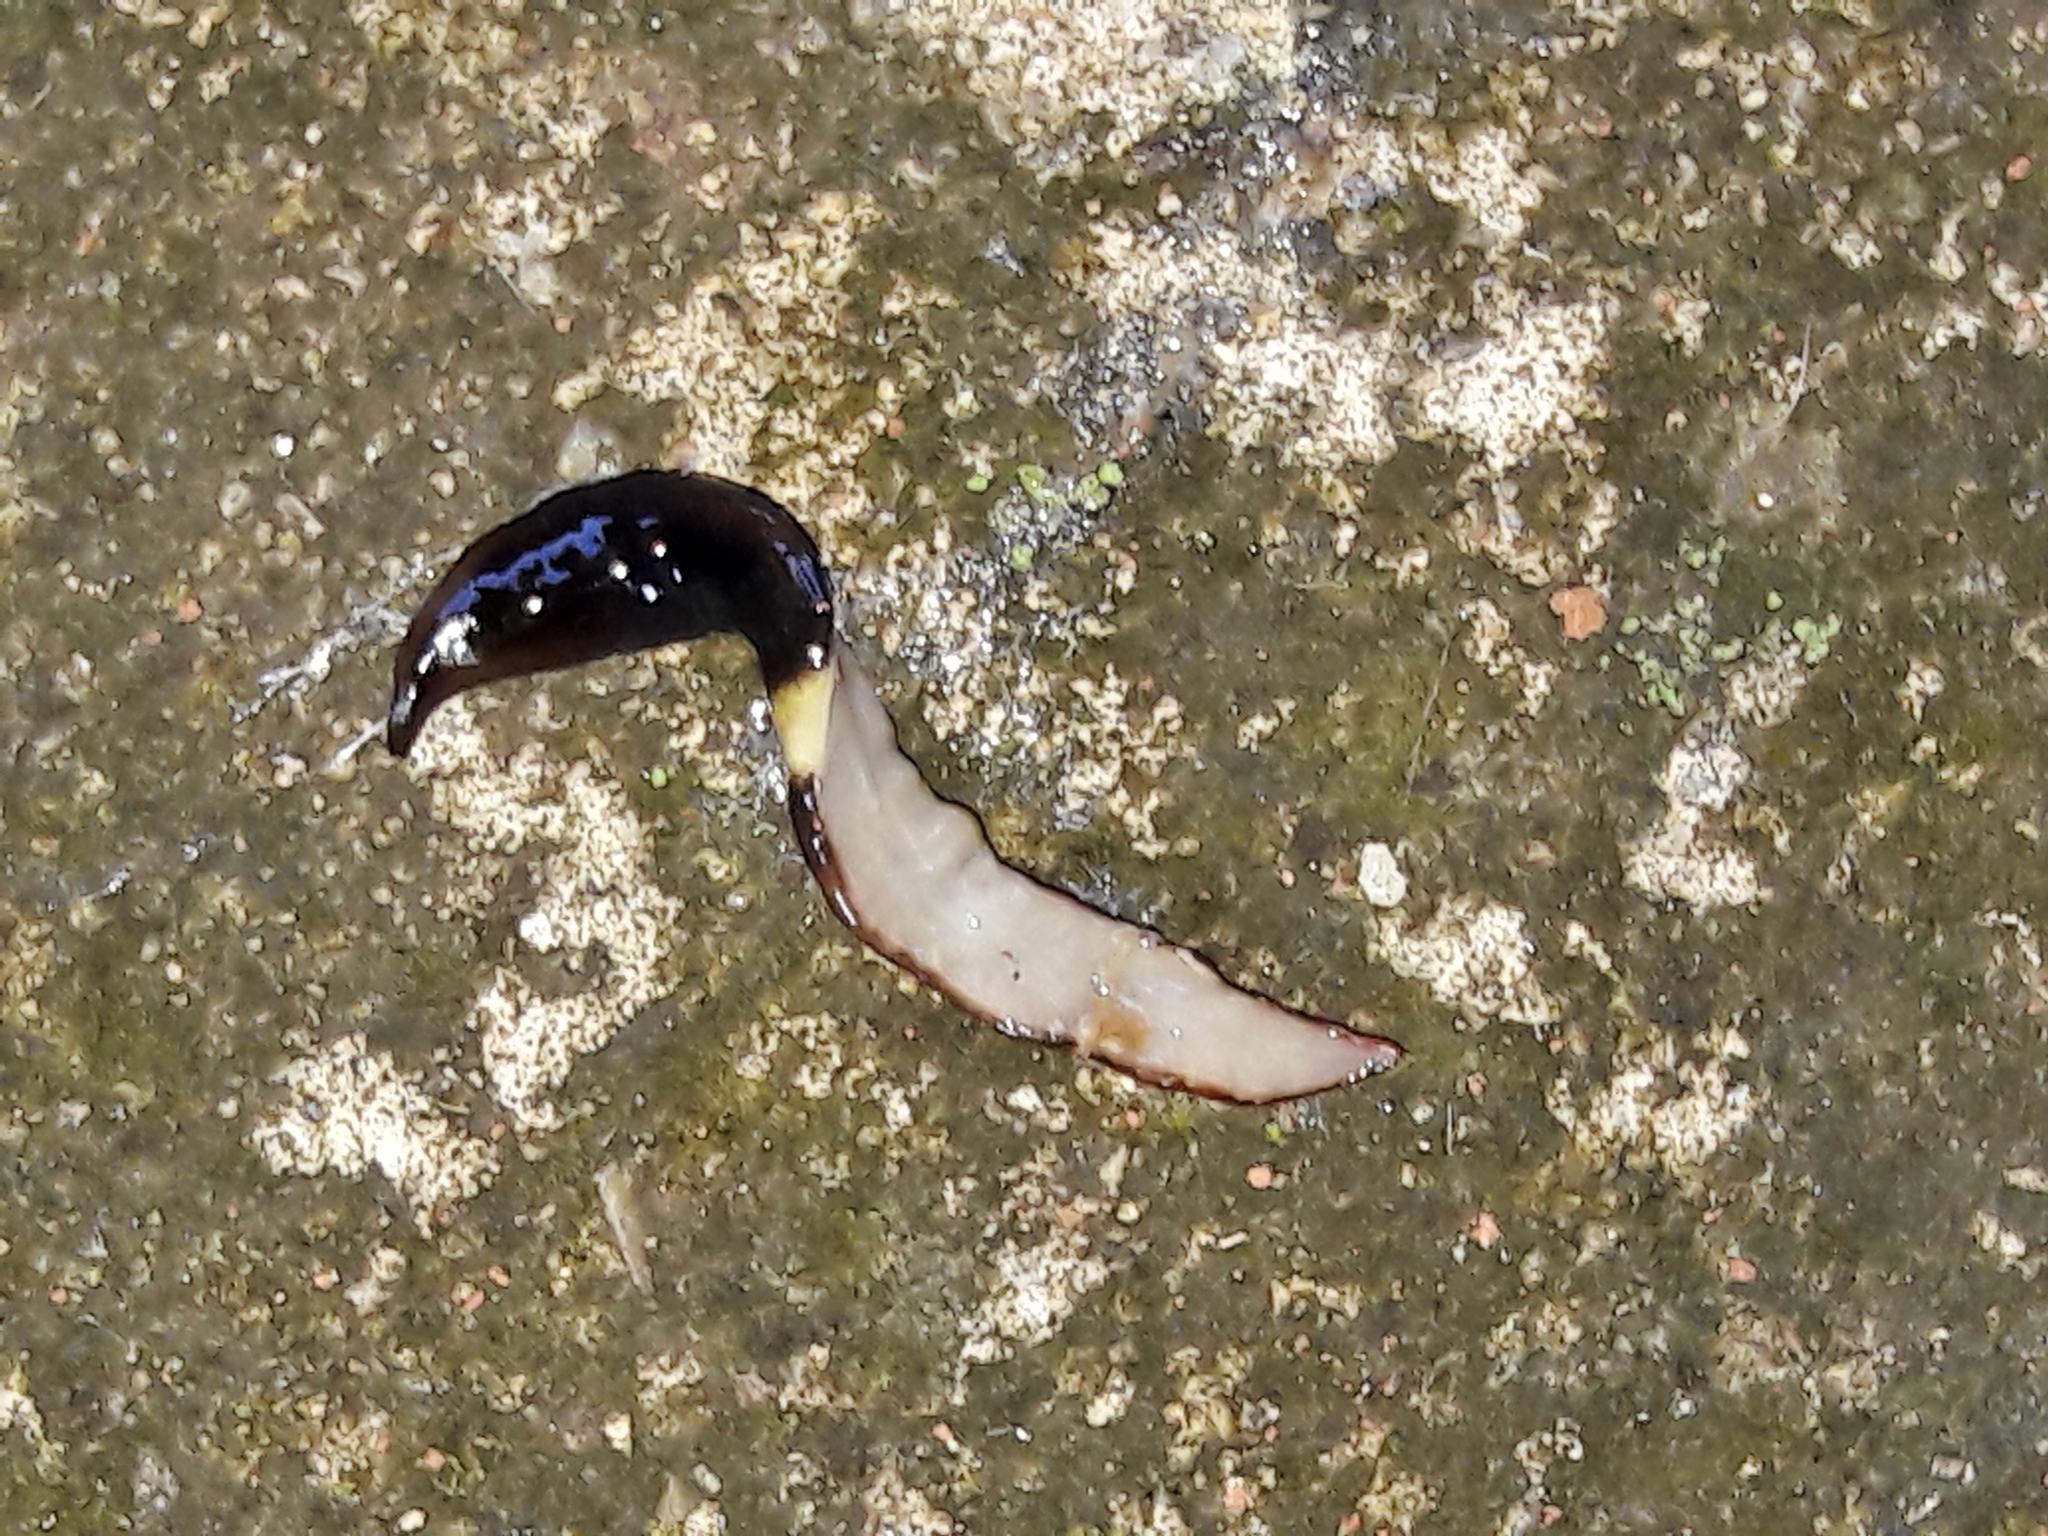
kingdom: Animalia
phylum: Platyhelminthes
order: Tricladida
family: Geoplanidae
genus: Paraba
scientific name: Paraba pankaru
